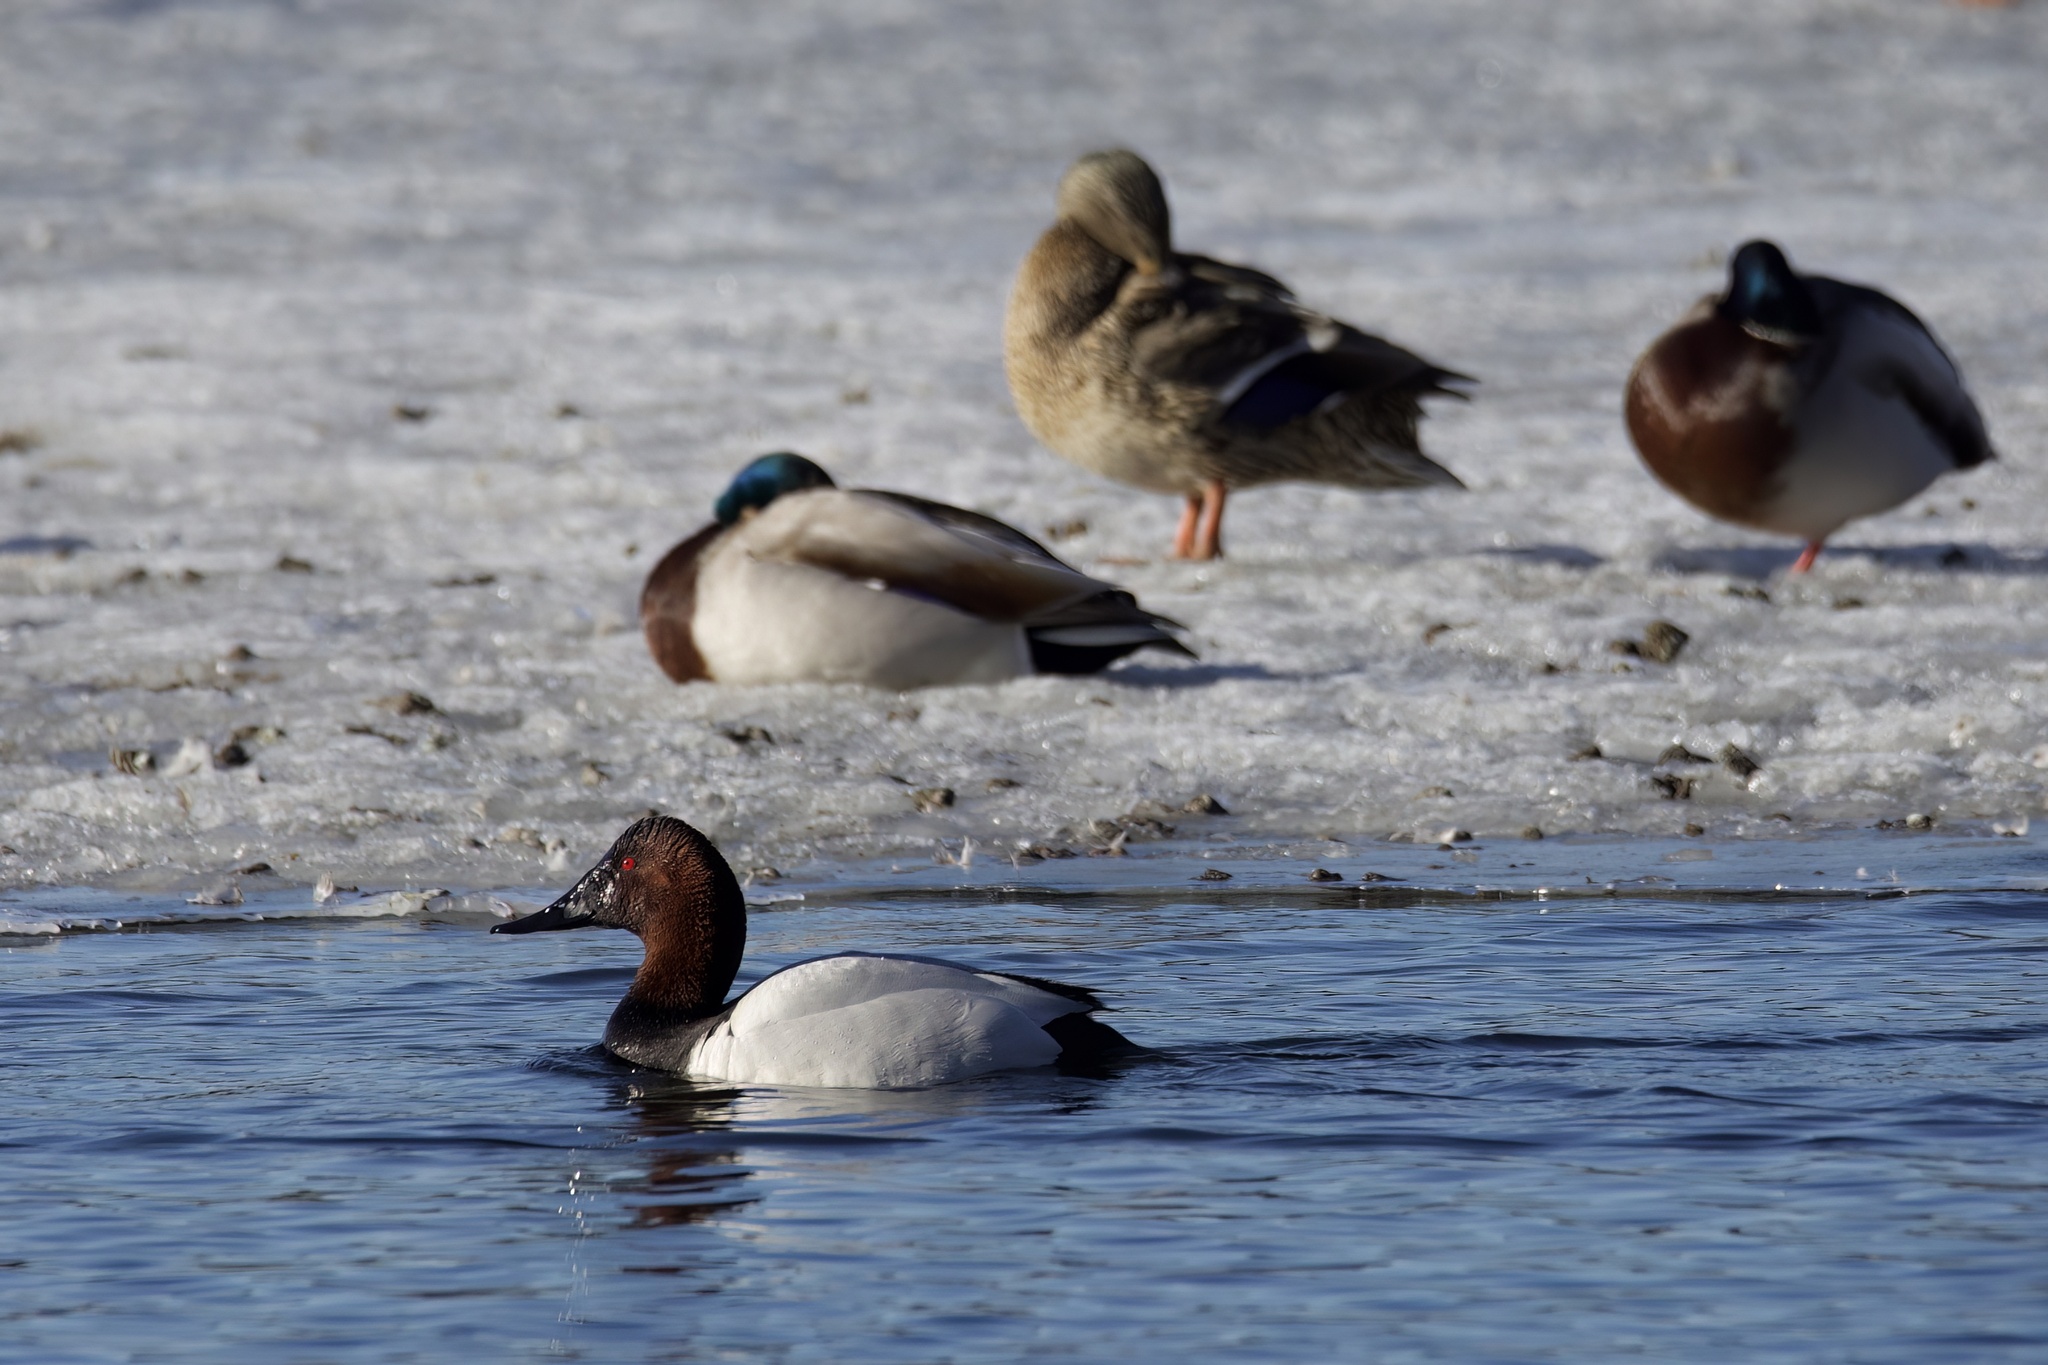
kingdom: Animalia
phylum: Chordata
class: Aves
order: Anseriformes
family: Anatidae
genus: Aythya
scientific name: Aythya valisineria
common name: Canvasback
